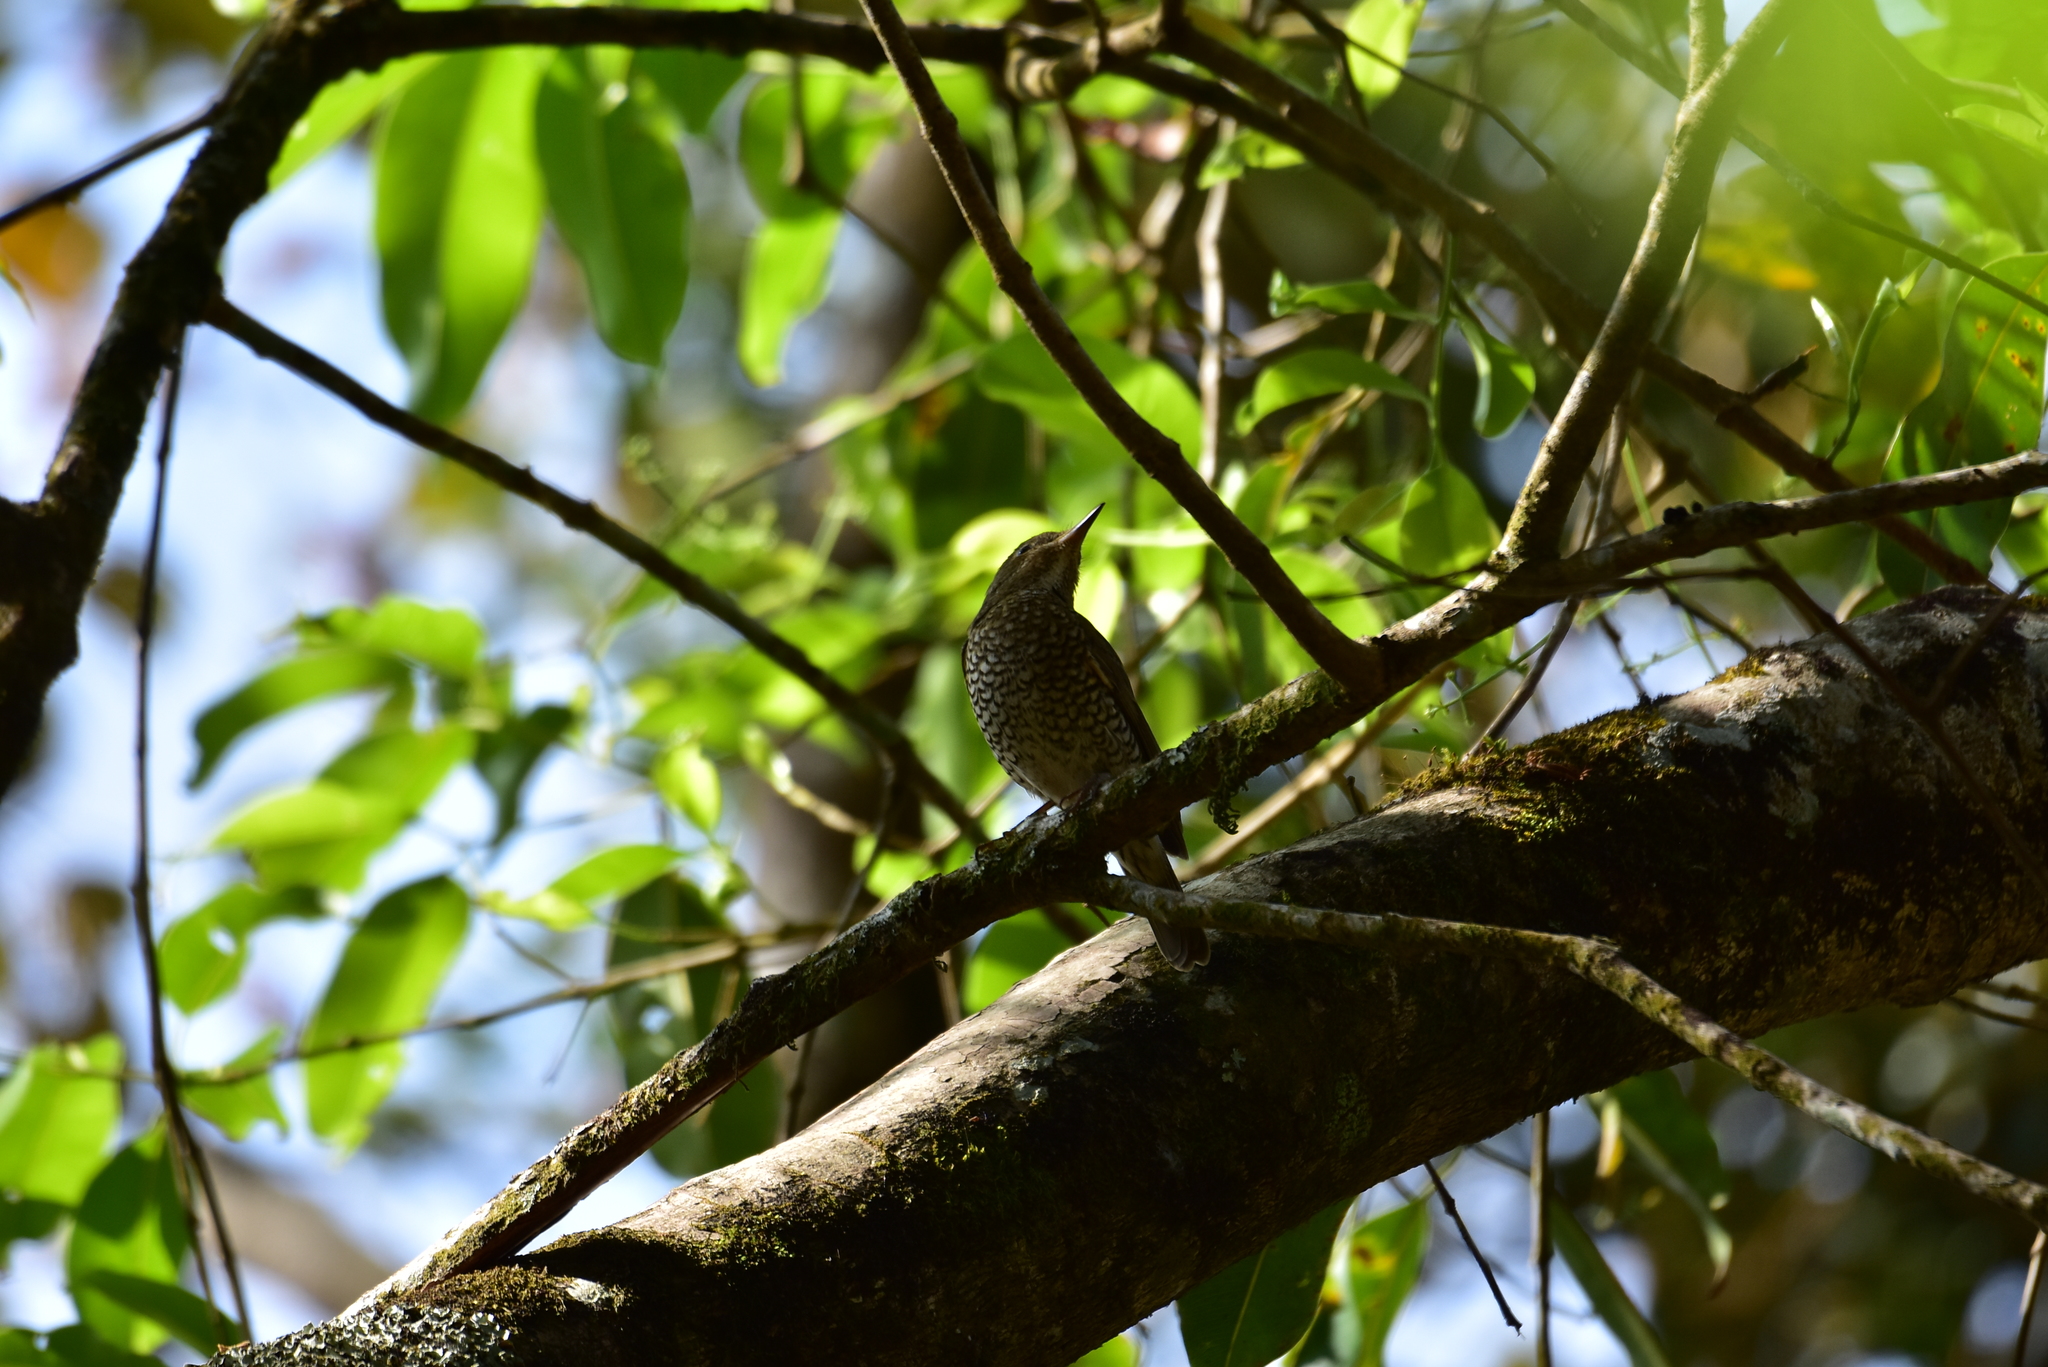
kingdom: Animalia
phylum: Chordata
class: Aves
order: Passeriformes
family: Muscicapidae
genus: Monticola
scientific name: Monticola cinclorhynchus
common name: Blue-capped rock thrush
